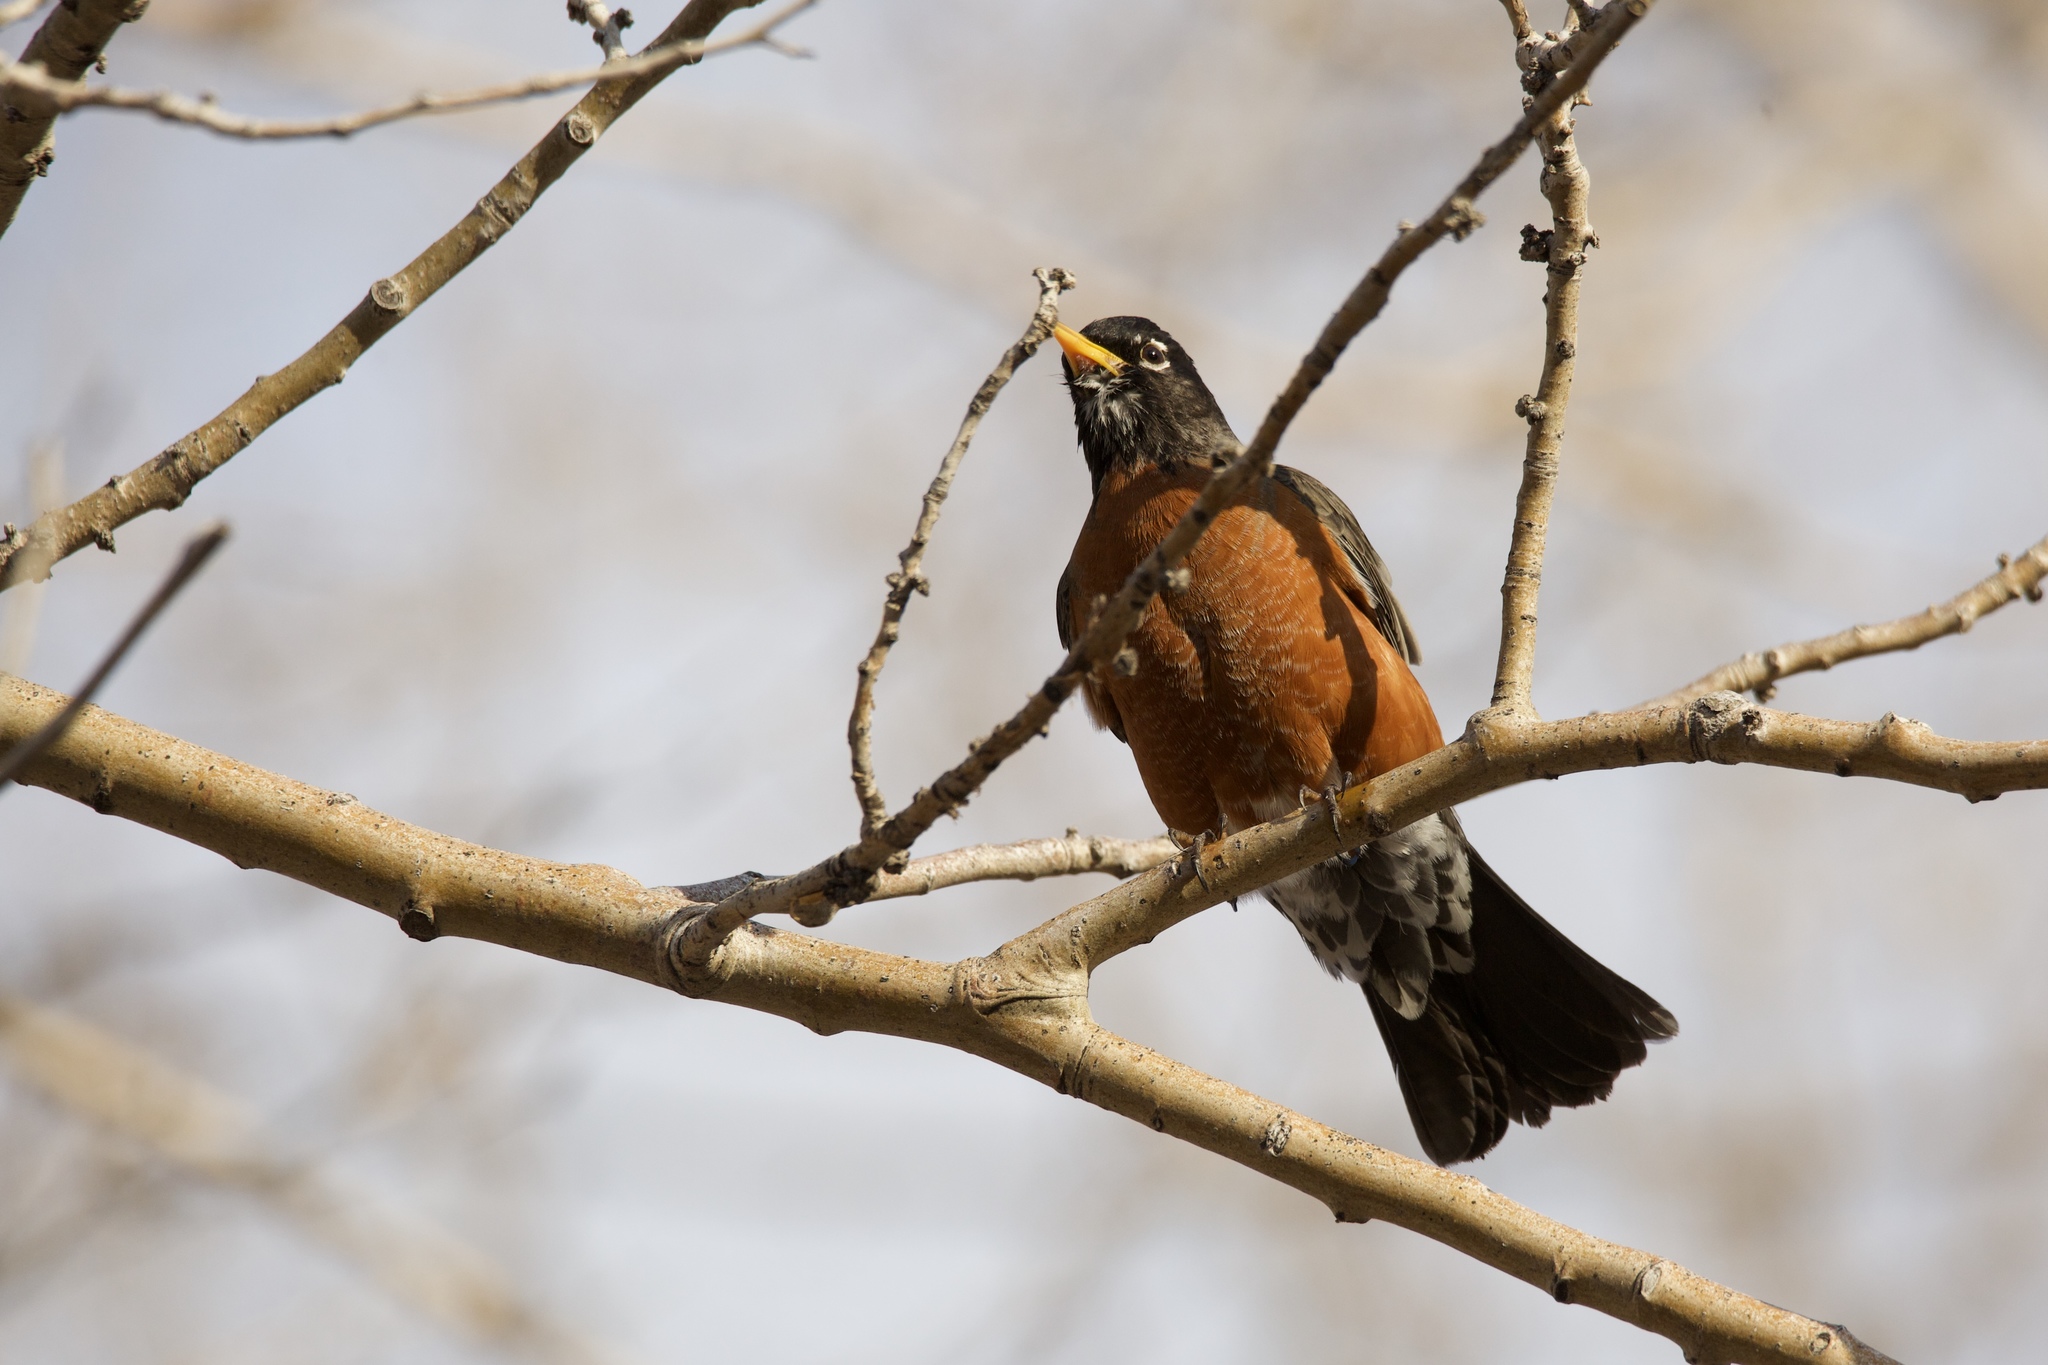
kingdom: Animalia
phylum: Chordata
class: Aves
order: Passeriformes
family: Turdidae
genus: Turdus
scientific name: Turdus migratorius
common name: American robin
